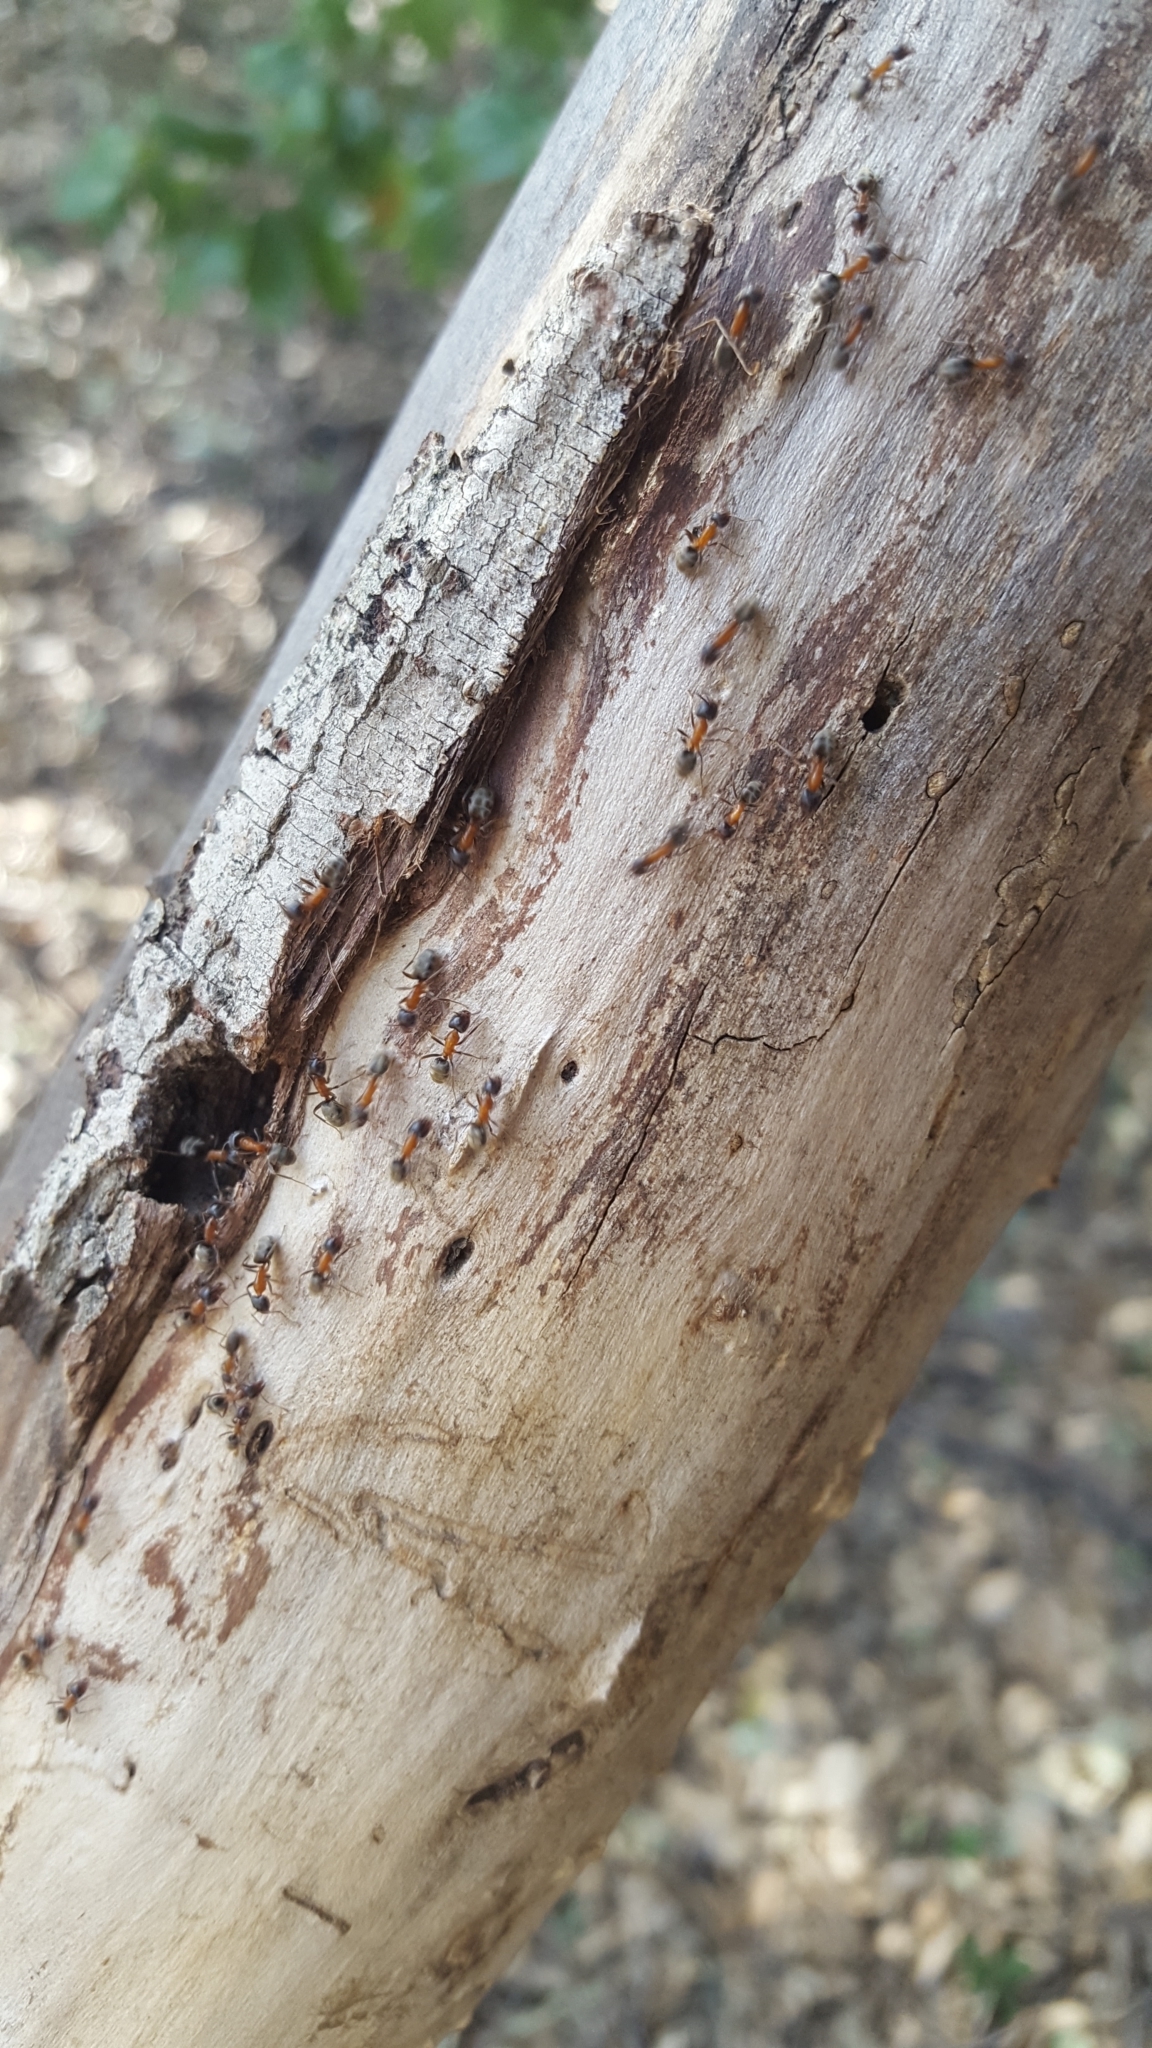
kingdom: Animalia
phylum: Arthropoda
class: Insecta
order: Hymenoptera
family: Formicidae
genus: Liometopum
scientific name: Liometopum occidentale
